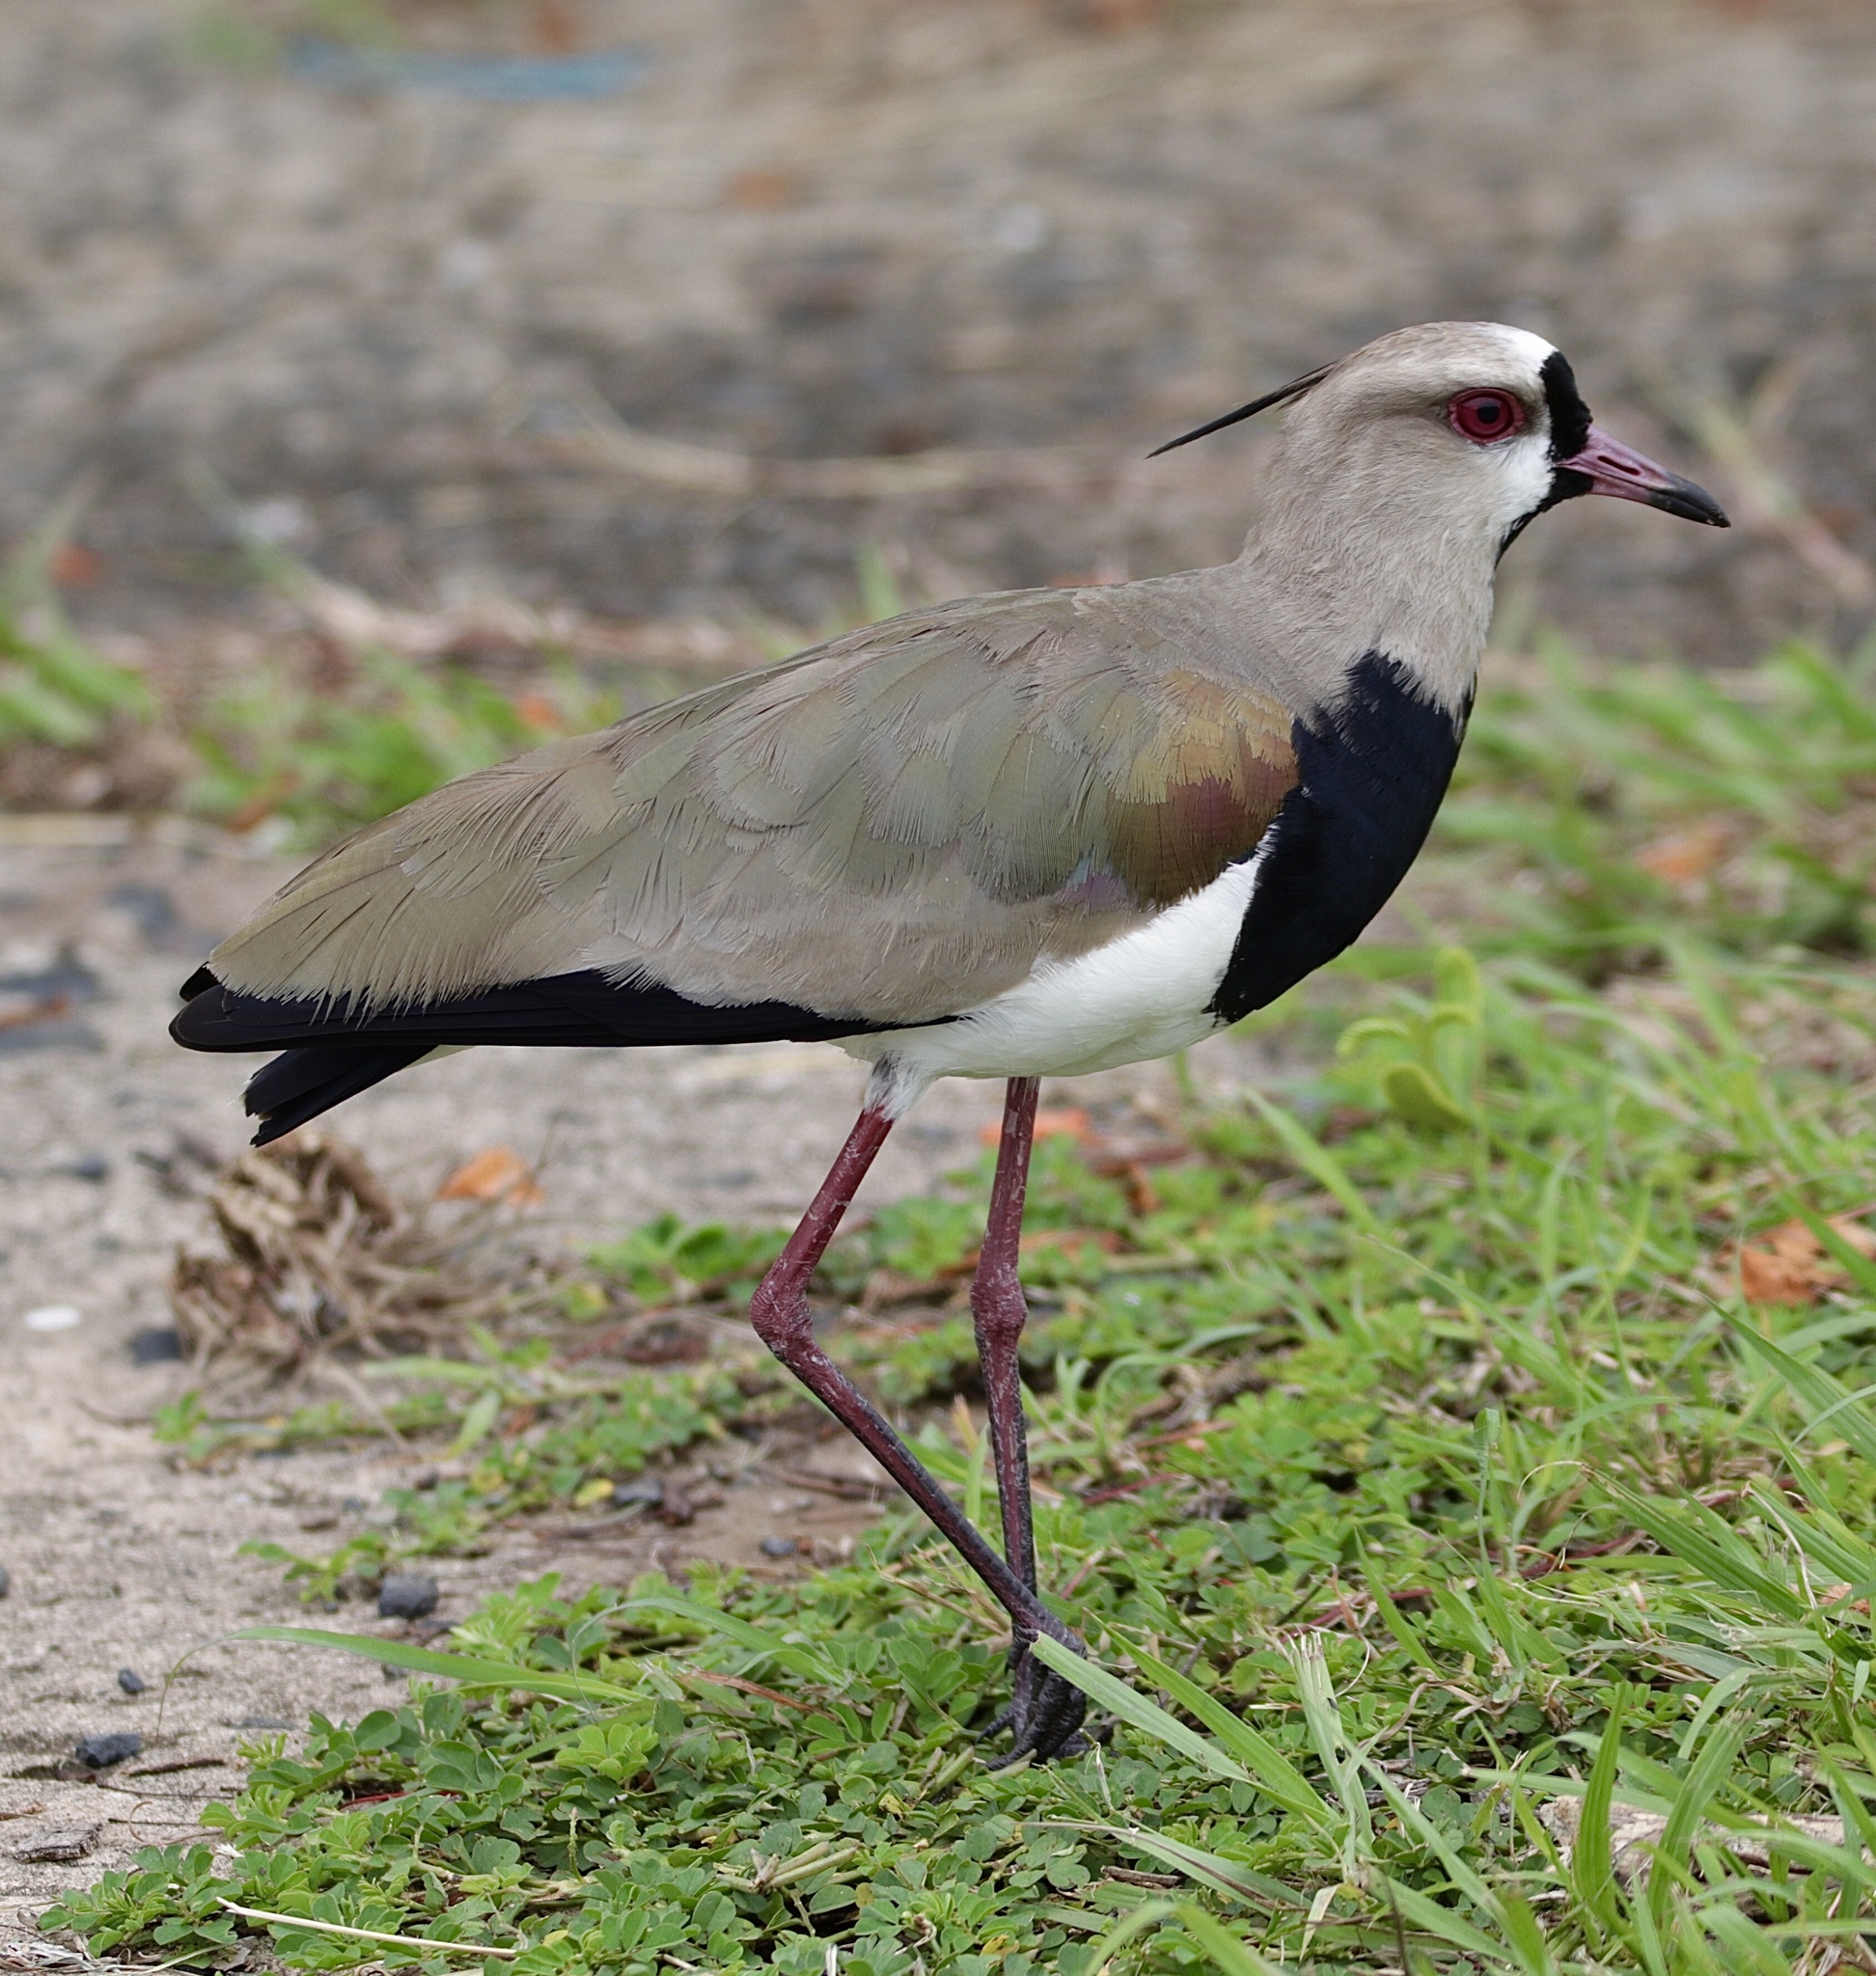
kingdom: Animalia
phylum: Chordata
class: Aves
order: Charadriiformes
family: Charadriidae
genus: Vanellus
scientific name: Vanellus chilensis
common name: Southern lapwing
